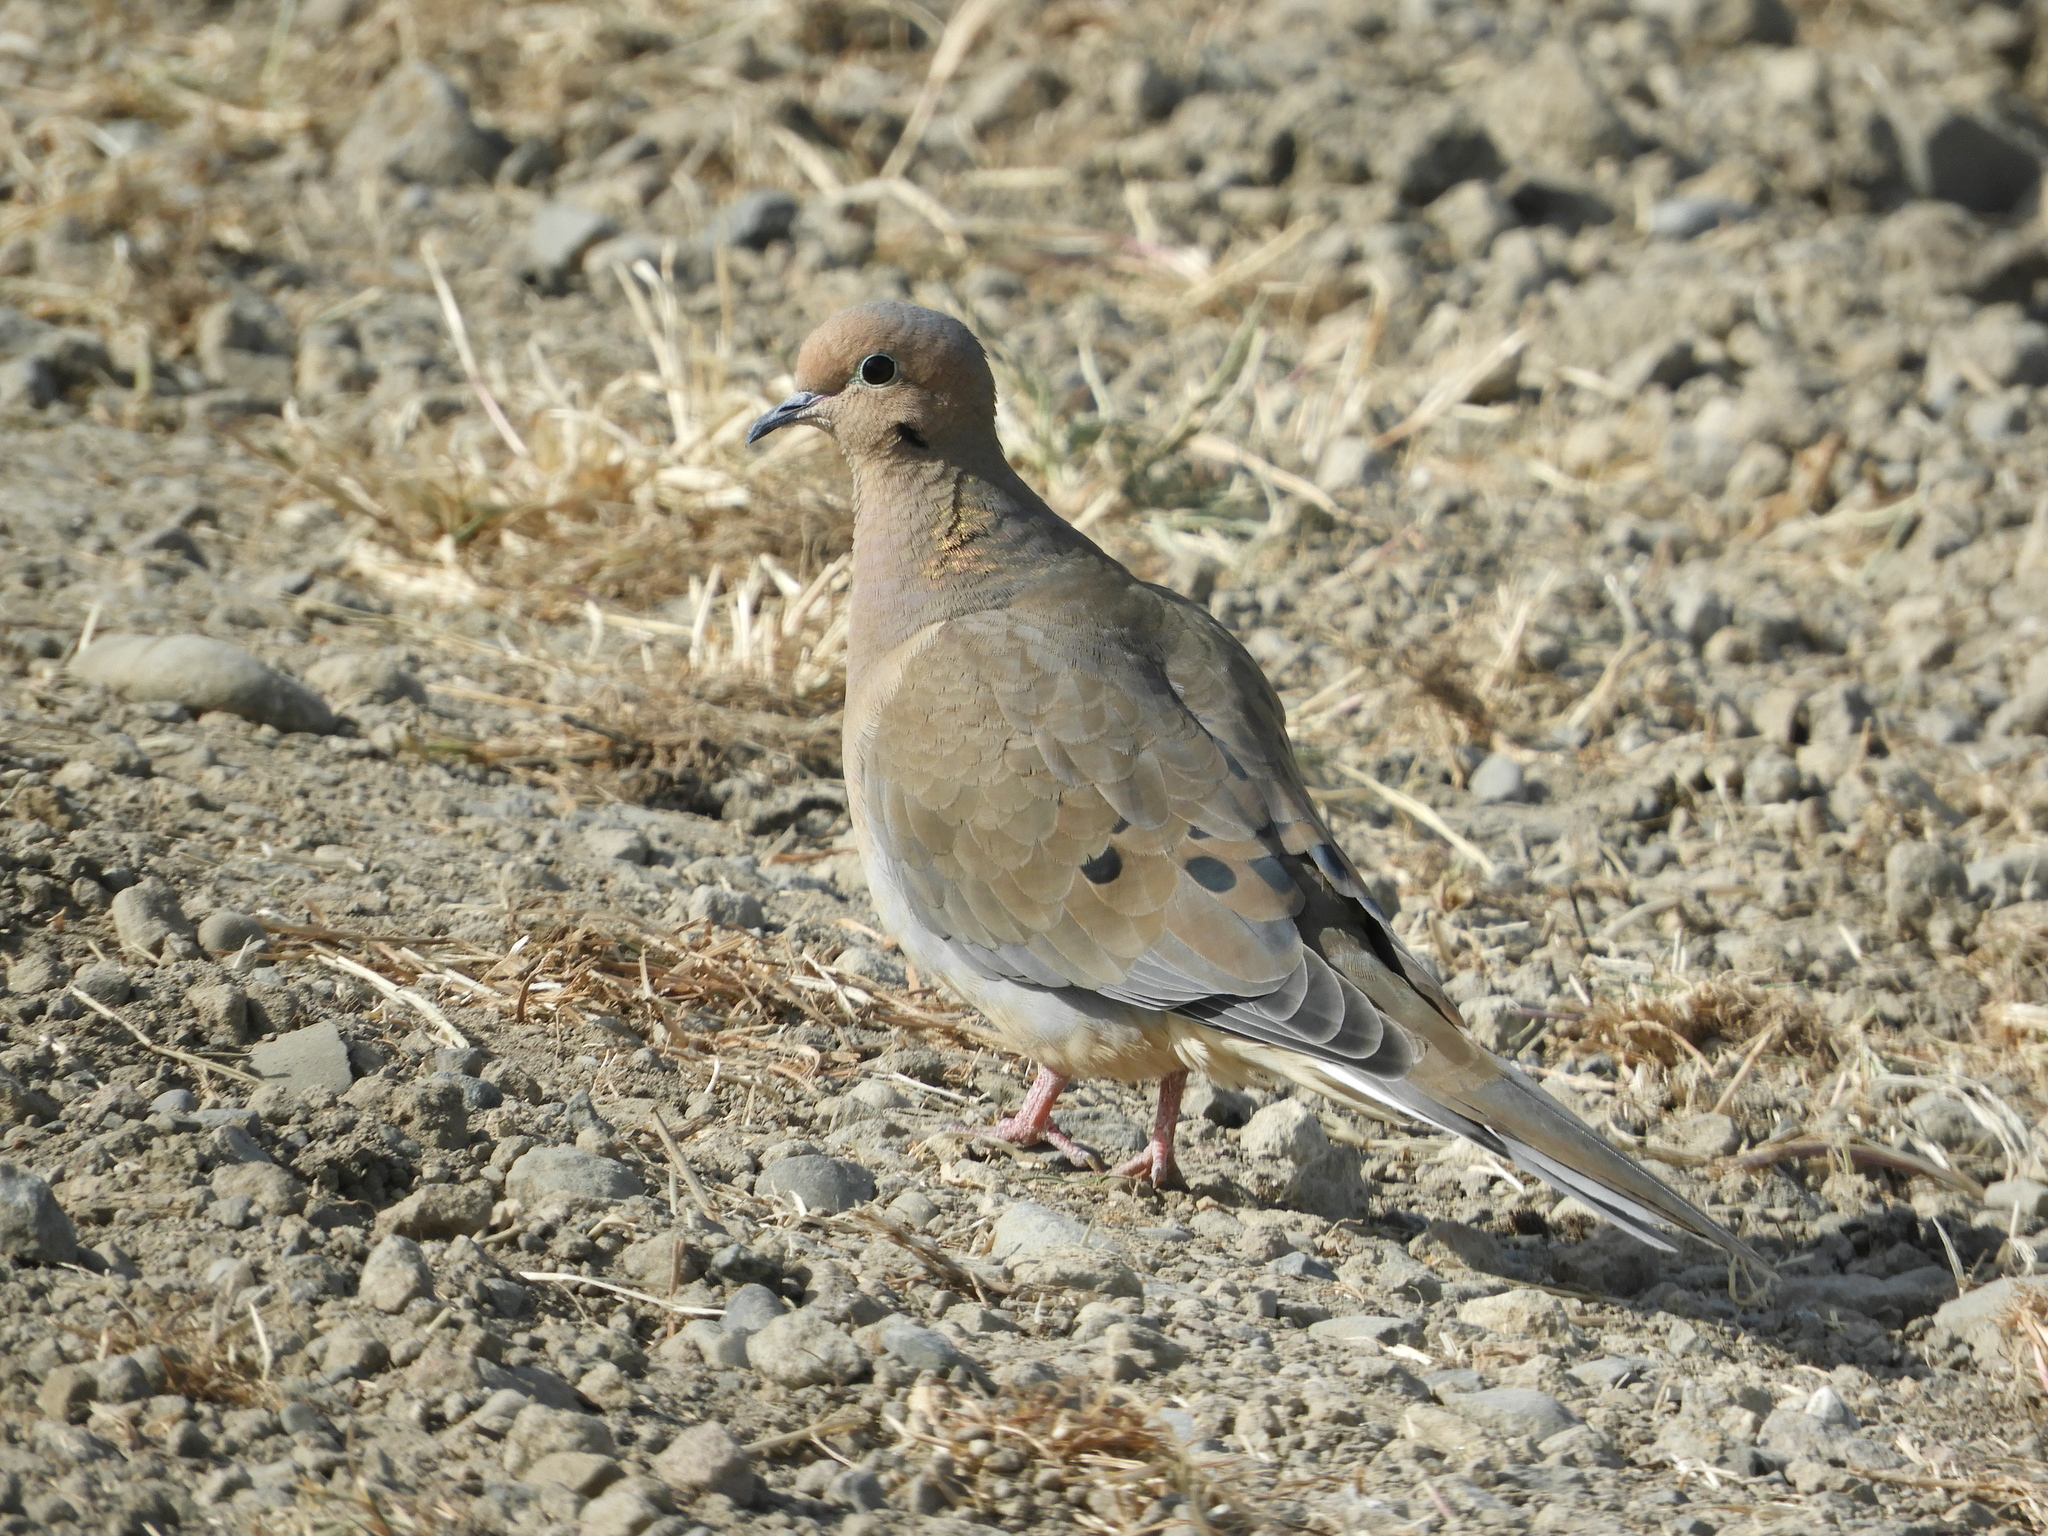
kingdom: Animalia
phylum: Chordata
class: Aves
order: Columbiformes
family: Columbidae
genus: Zenaida
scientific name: Zenaida macroura
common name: Mourning dove
